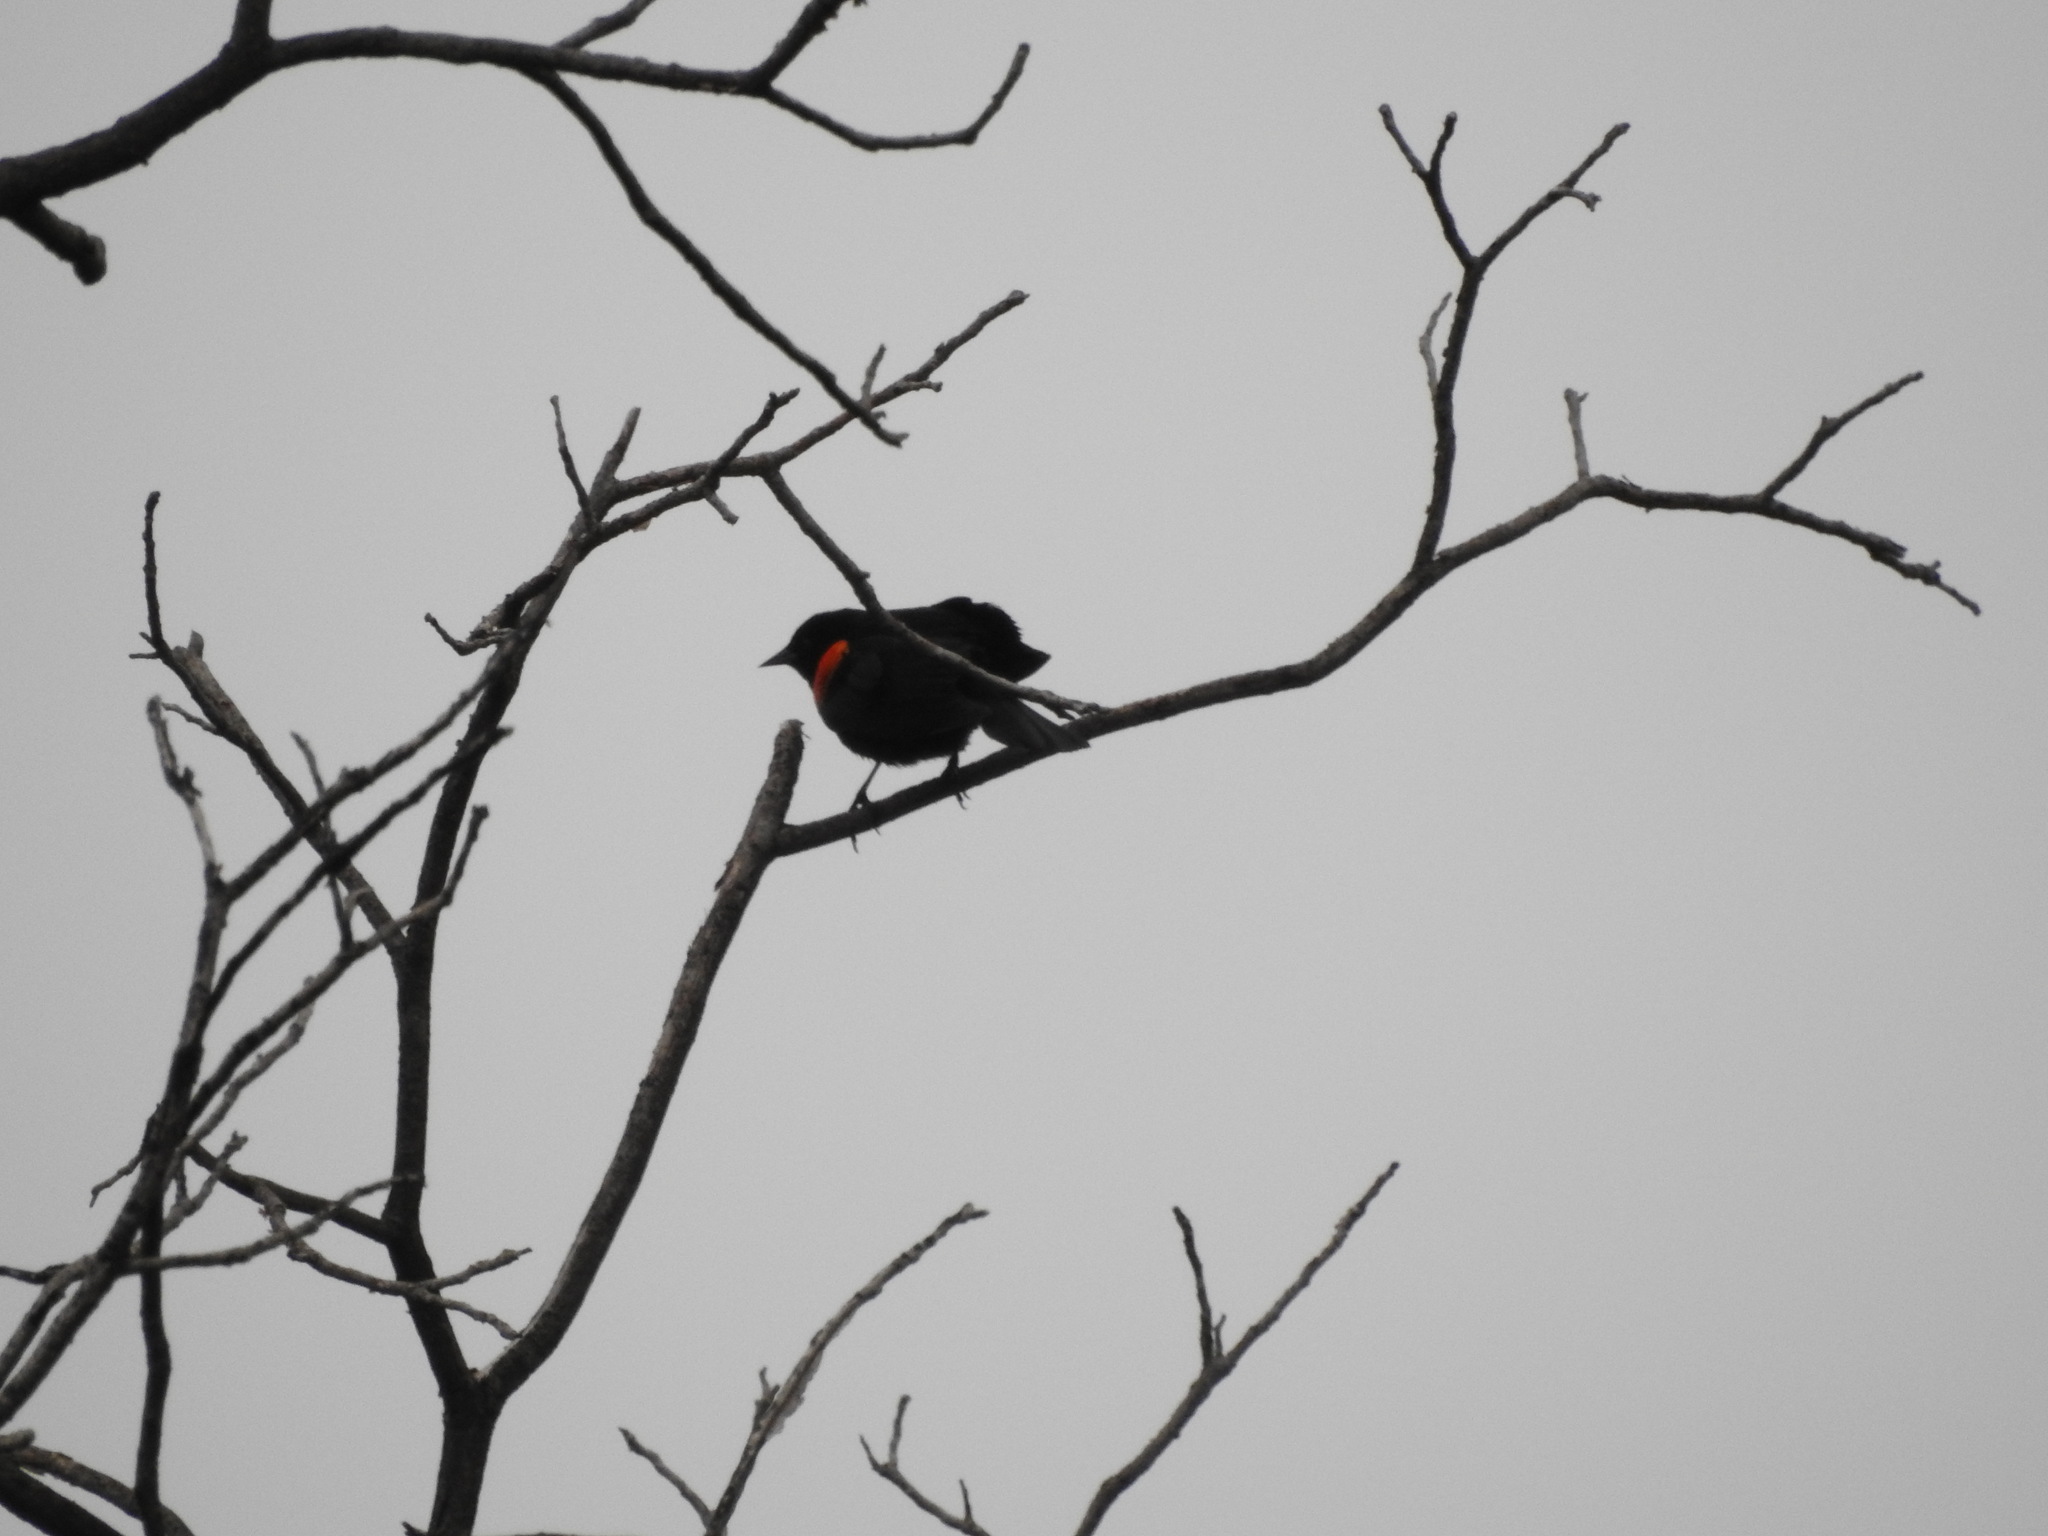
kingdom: Animalia
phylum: Chordata
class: Aves
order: Passeriformes
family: Icteridae
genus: Agelaius
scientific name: Agelaius phoeniceus
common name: Red-winged blackbird
